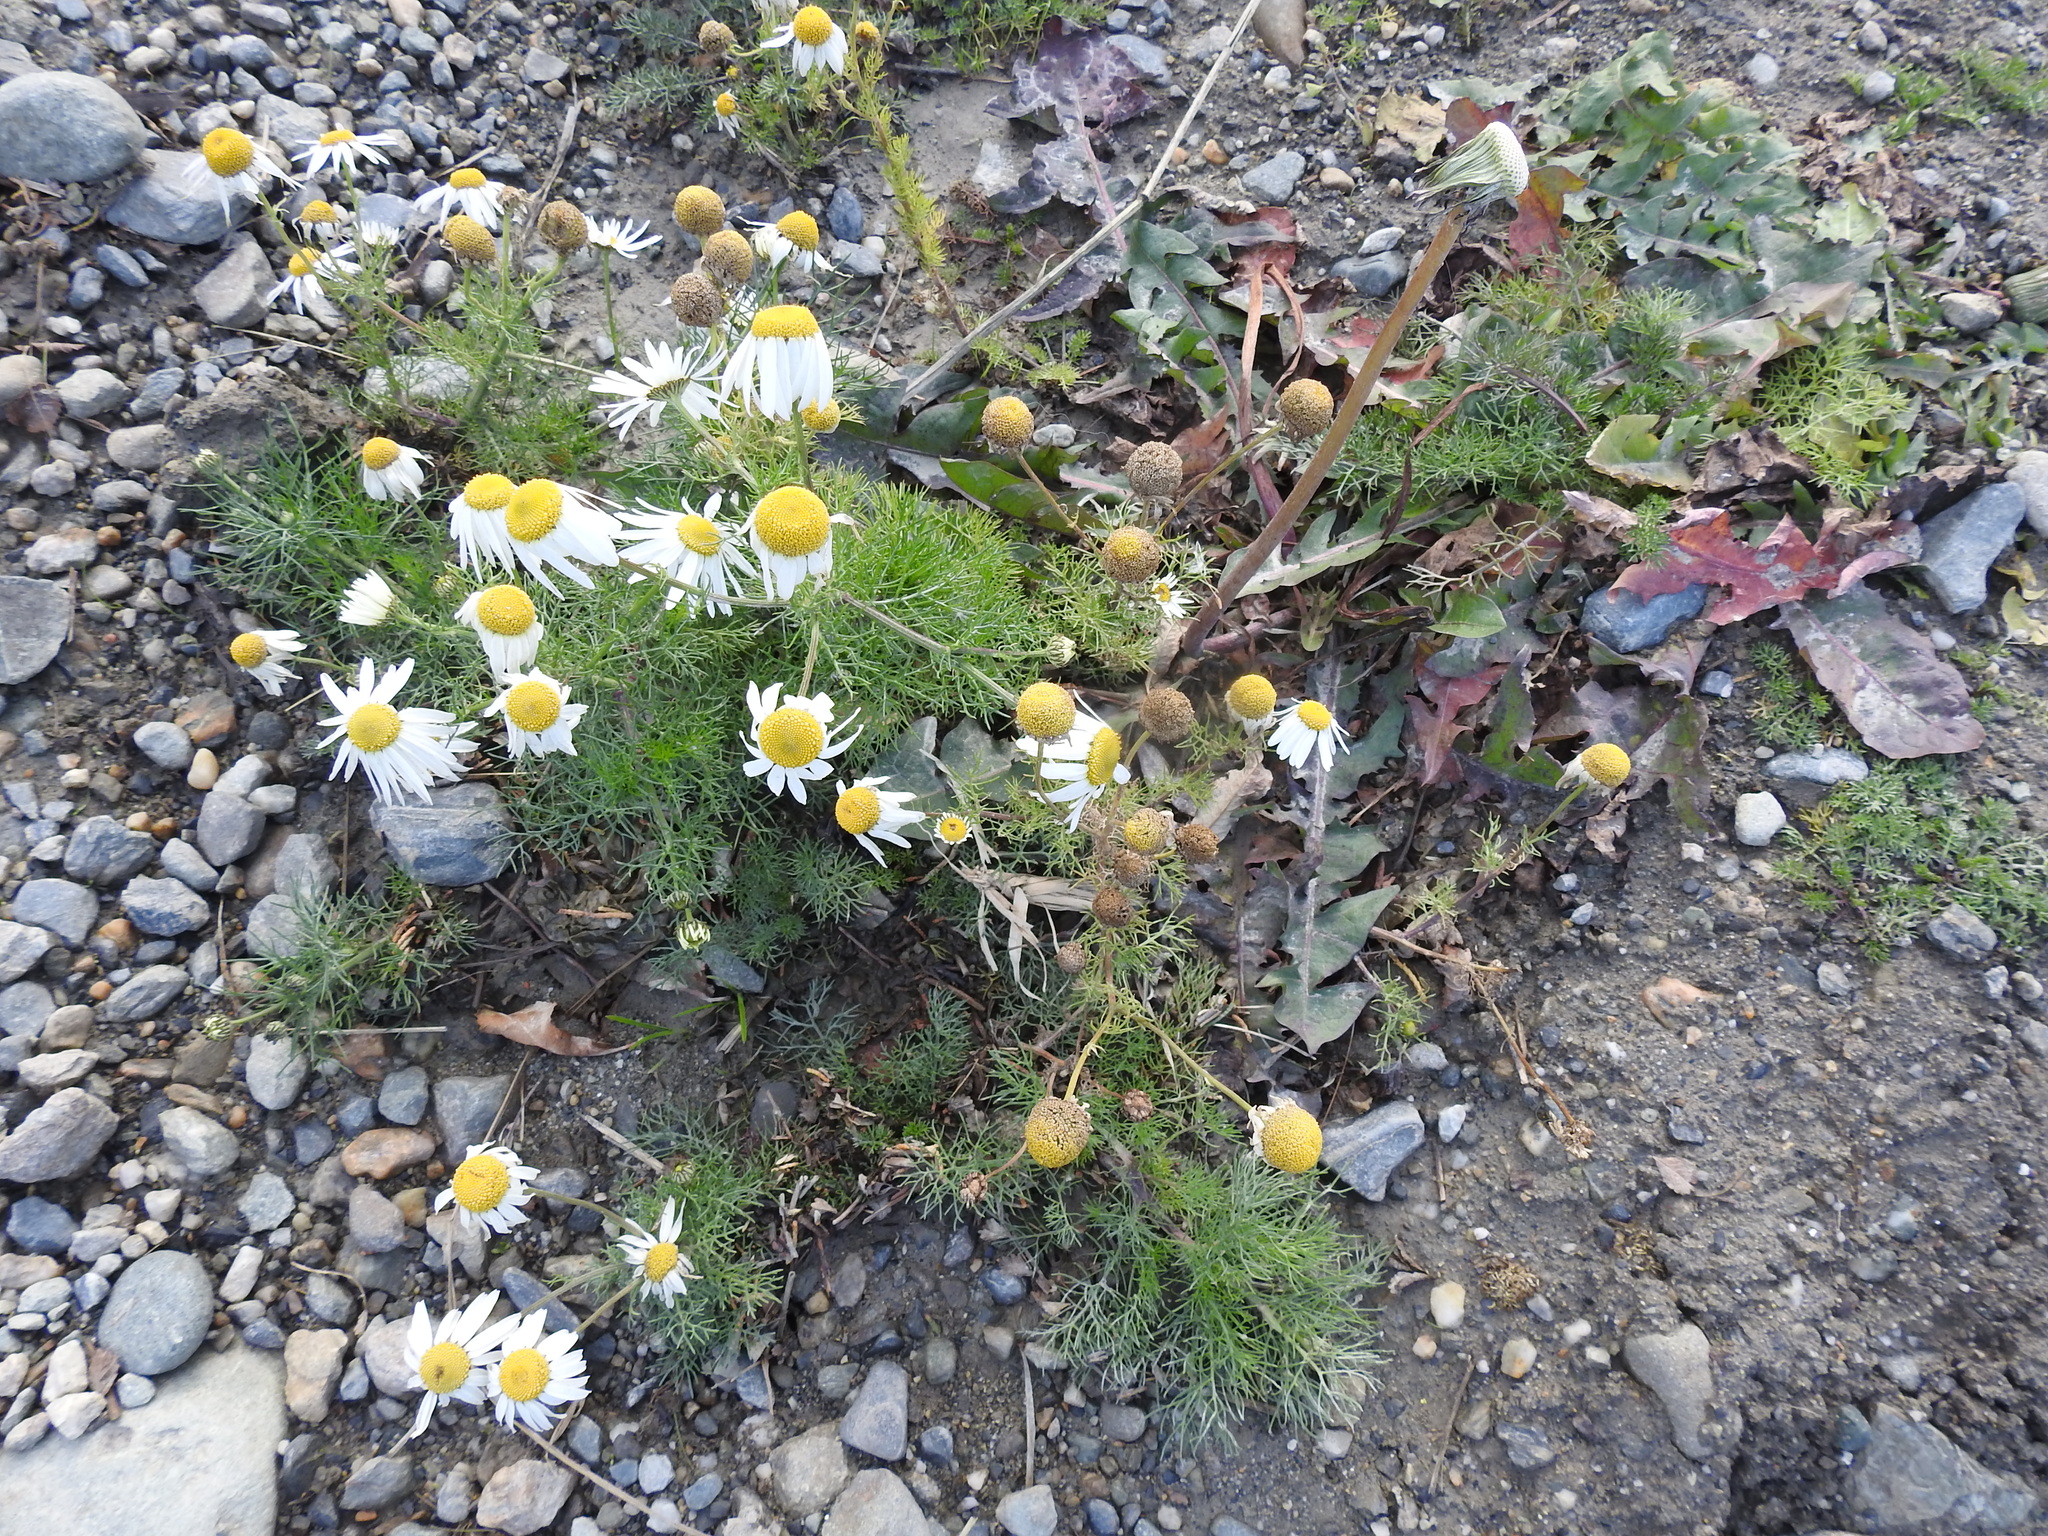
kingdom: Plantae
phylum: Tracheophyta
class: Magnoliopsida
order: Asterales
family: Asteraceae
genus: Tripleurospermum
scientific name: Tripleurospermum inodorum
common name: Scentless mayweed
